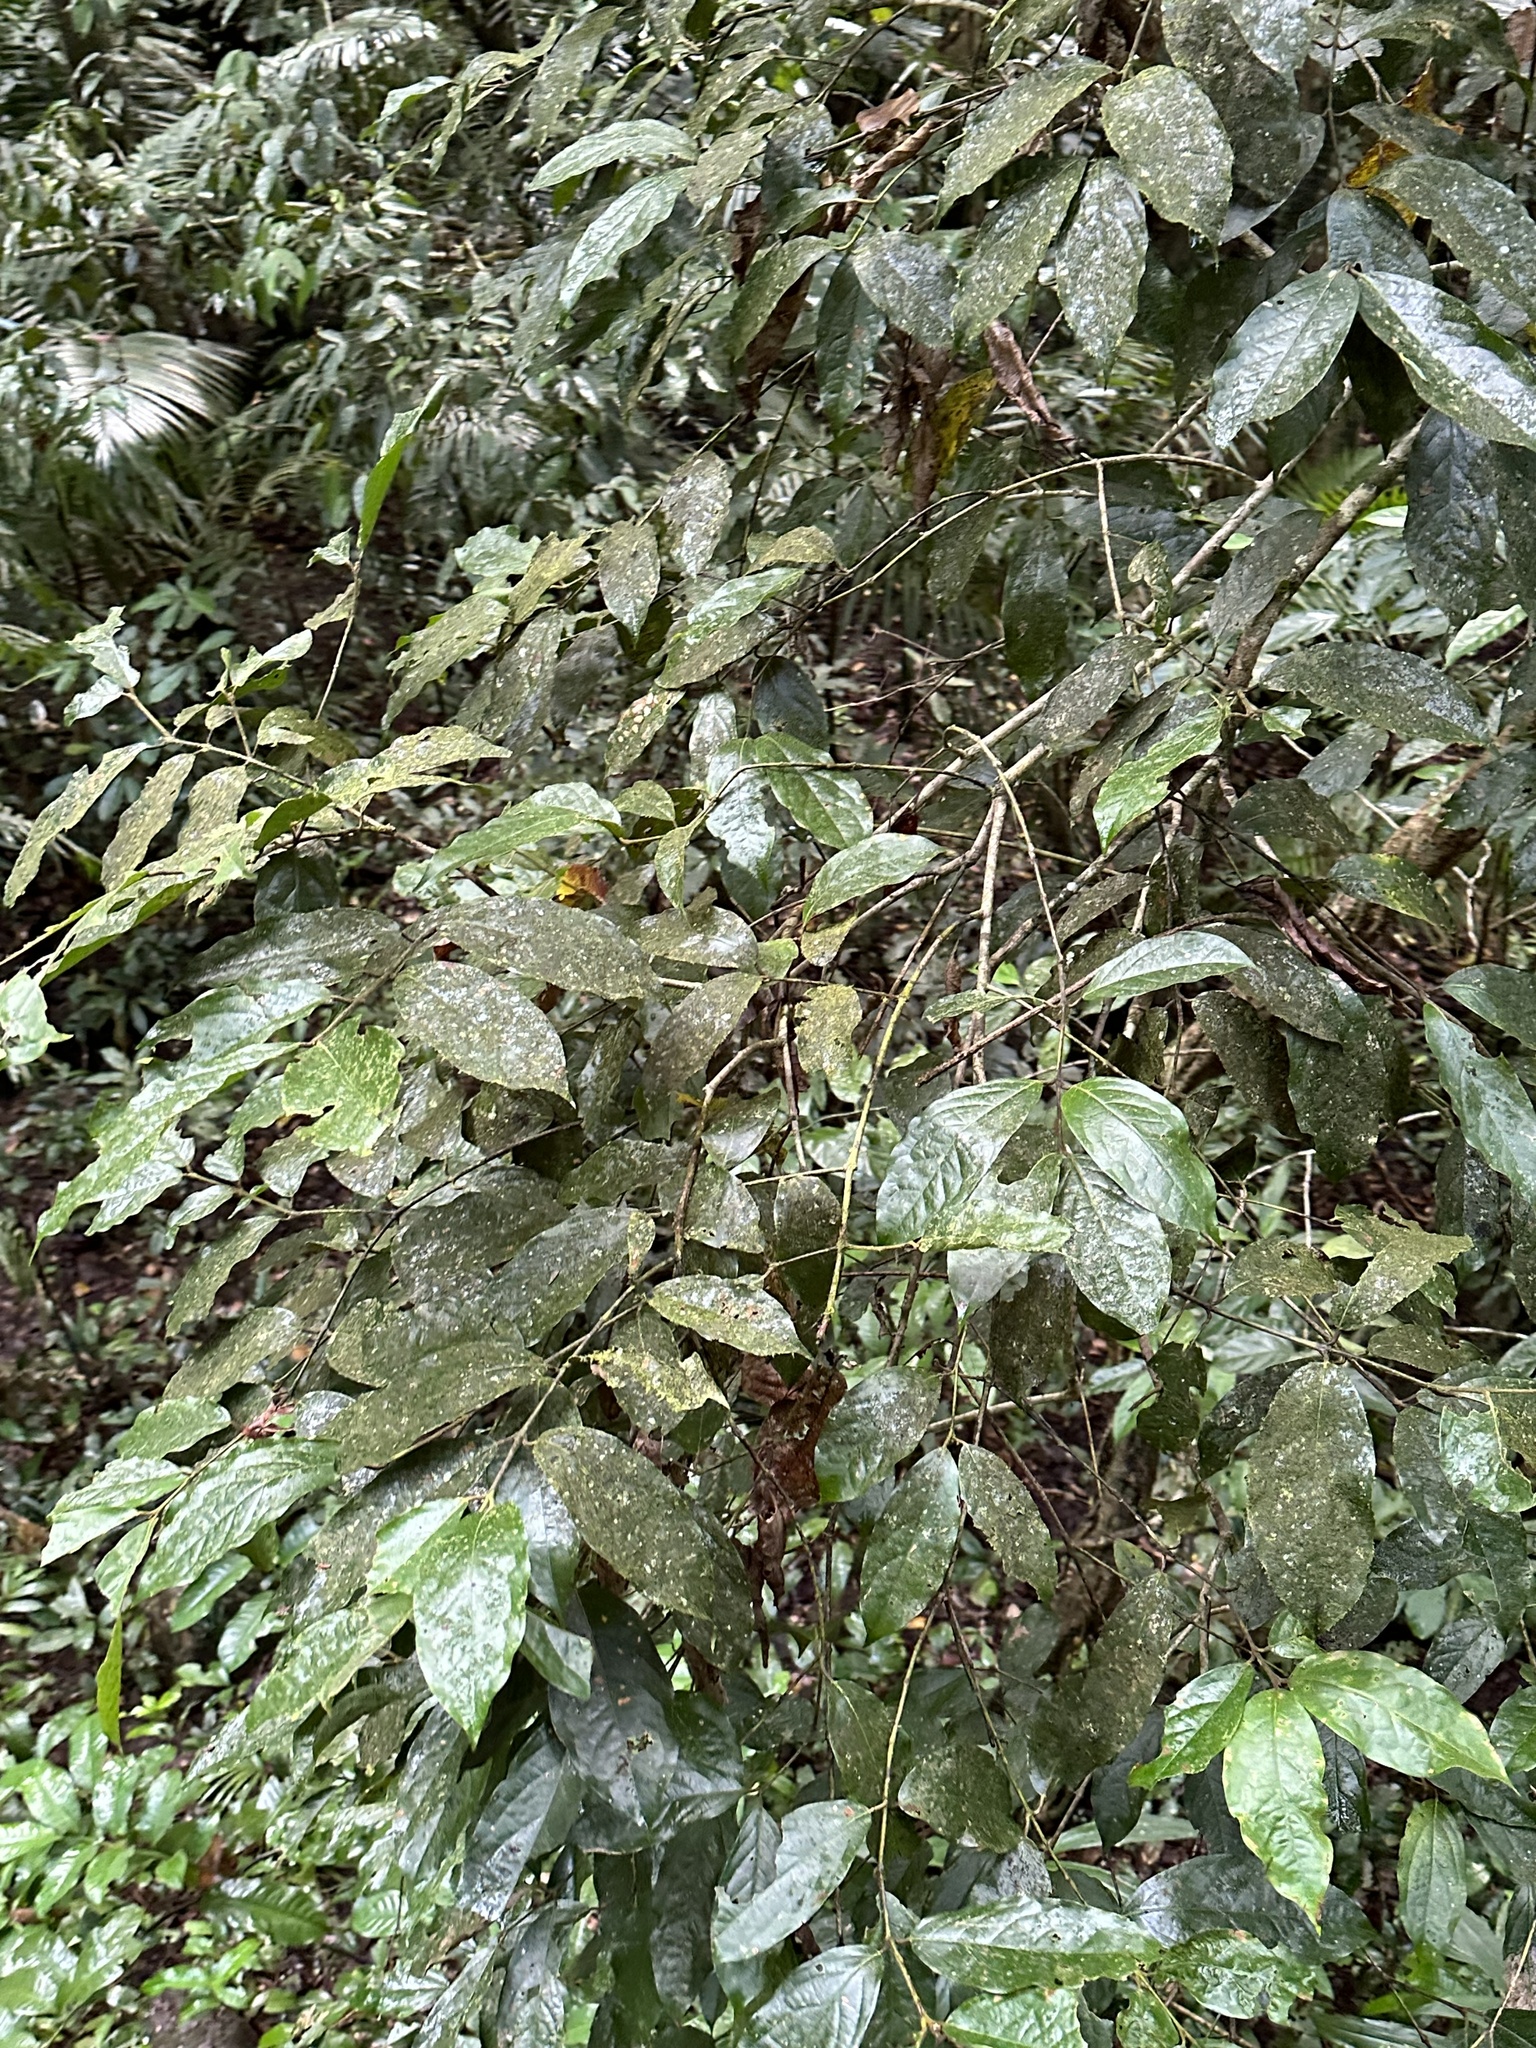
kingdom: Plantae
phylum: Tracheophyta
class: Magnoliopsida
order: Laurales
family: Monimiaceae
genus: Steganthera
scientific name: Steganthera laxiflora
